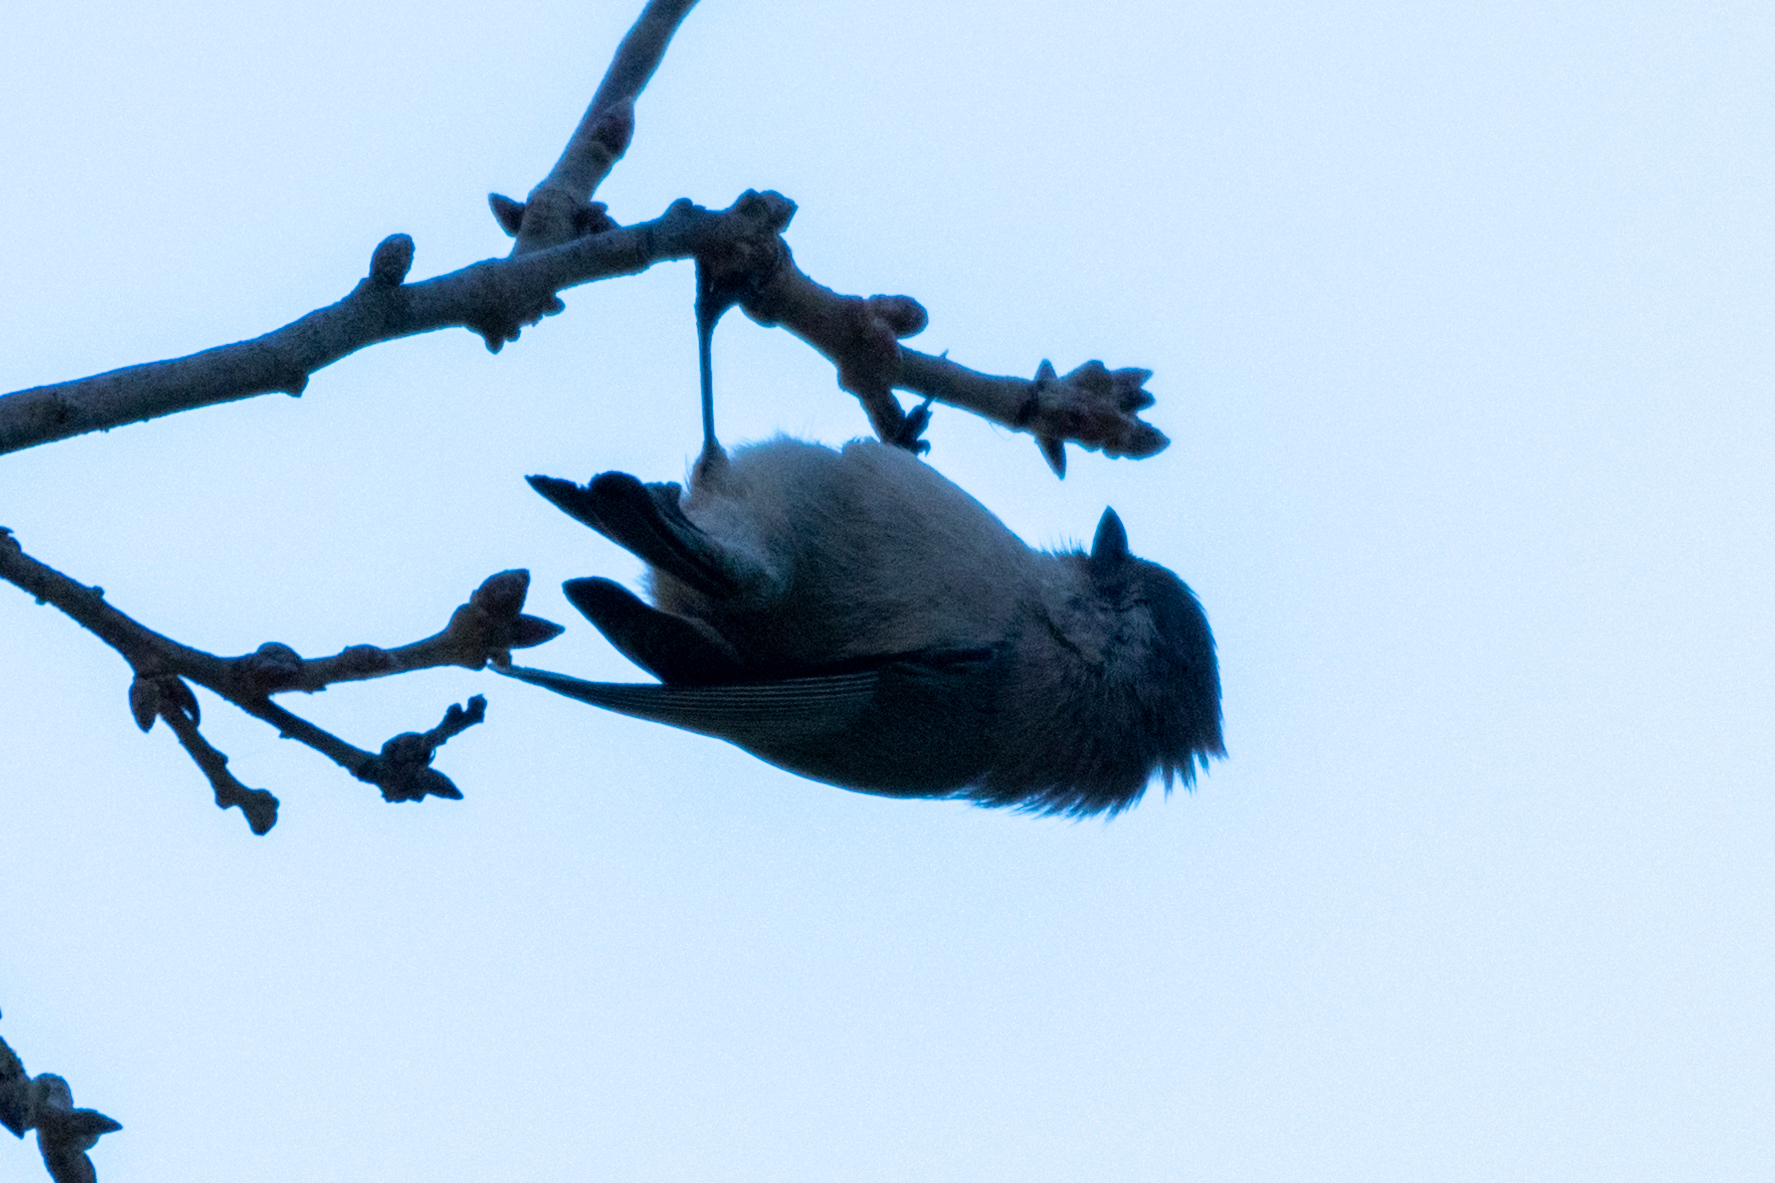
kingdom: Animalia
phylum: Chordata
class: Aves
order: Passeriformes
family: Aegithalidae
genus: Psaltriparus
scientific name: Psaltriparus minimus
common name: American bushtit
